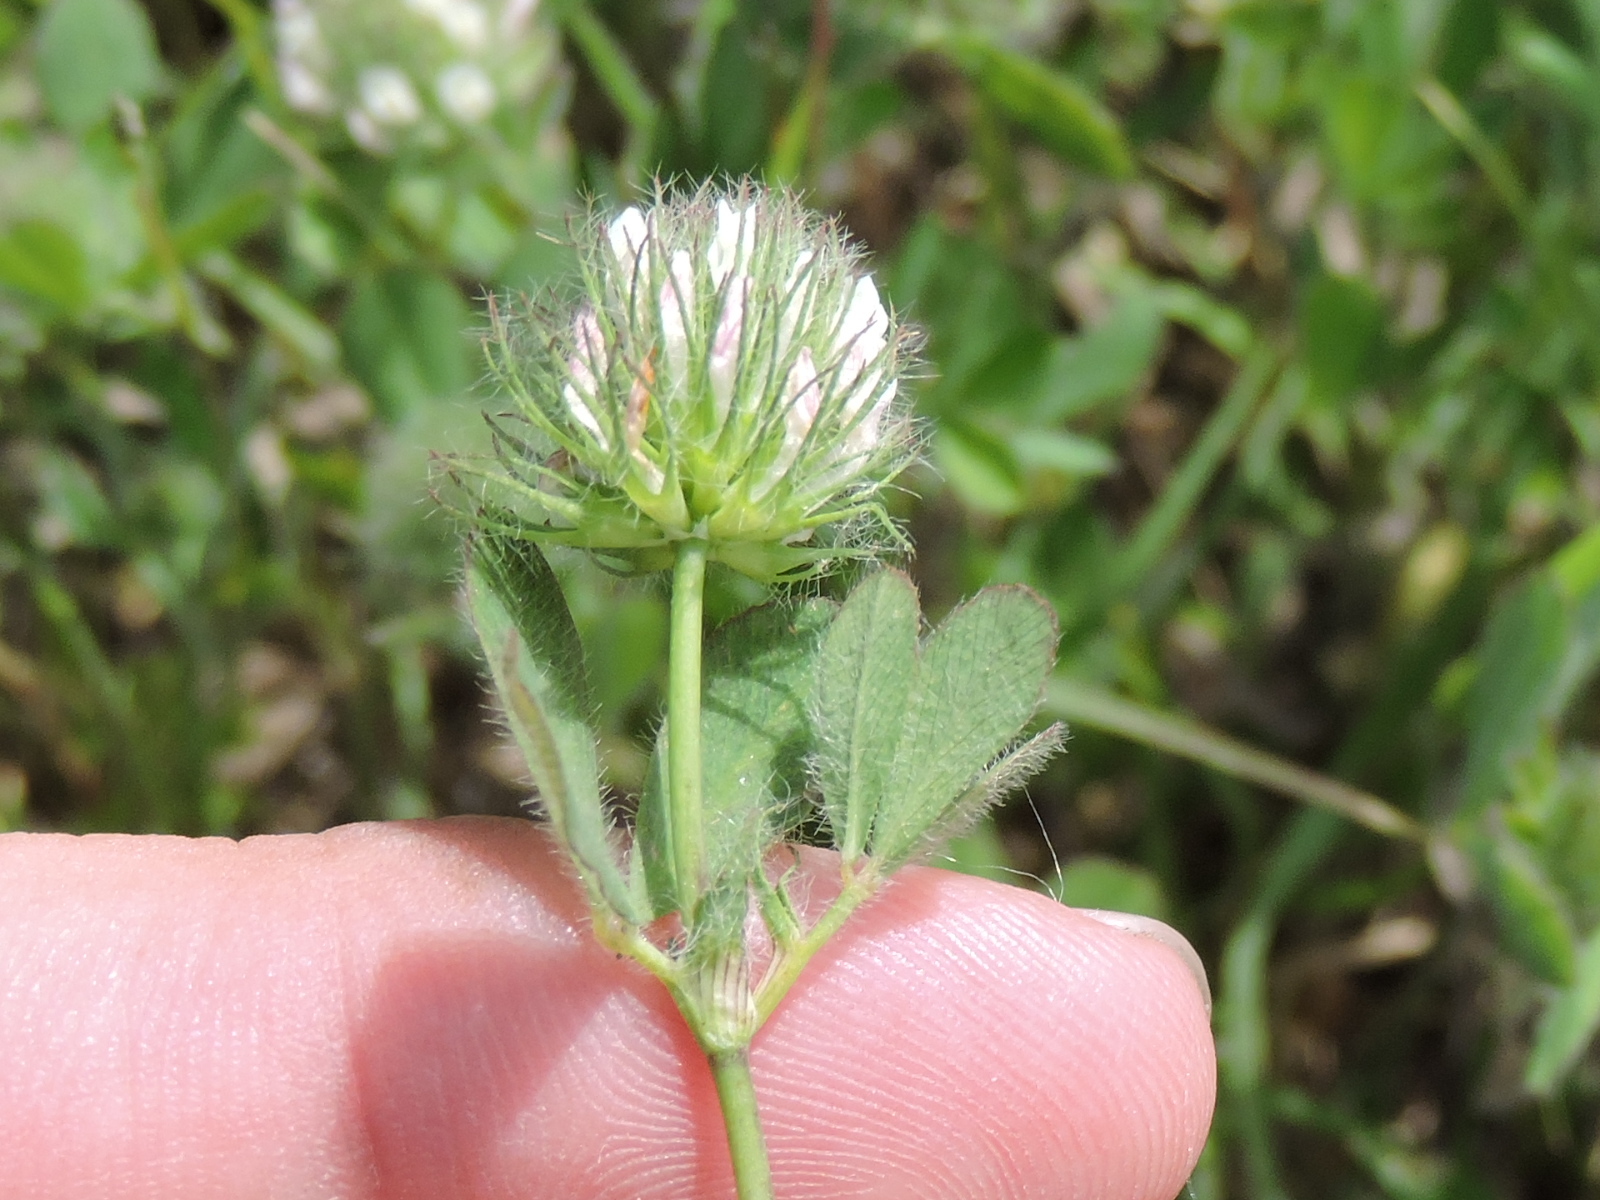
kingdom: Plantae
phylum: Tracheophyta
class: Magnoliopsida
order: Fabales
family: Fabaceae
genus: Trifolium
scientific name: Trifolium lappaceum
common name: Bur clover
